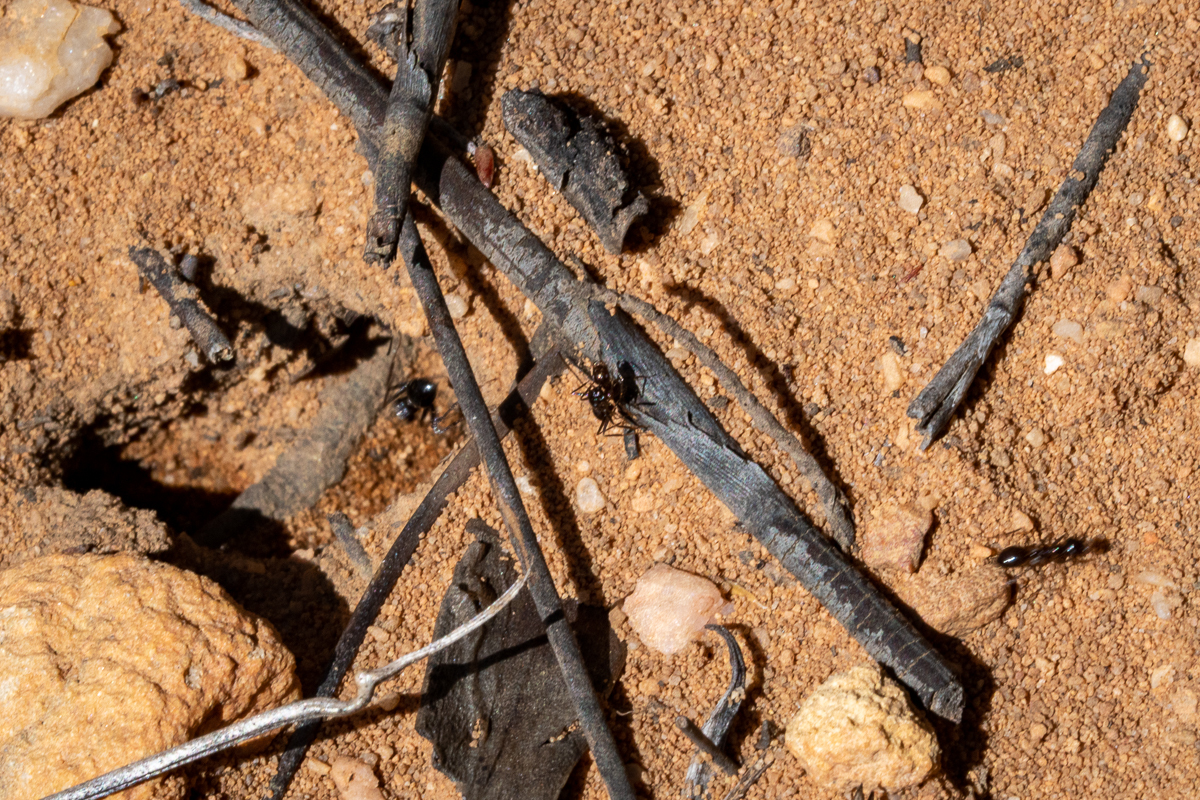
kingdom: Animalia
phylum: Arthropoda
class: Insecta
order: Hymenoptera
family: Formicidae
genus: Anoplolepis
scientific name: Anoplolepis steingroeveri
